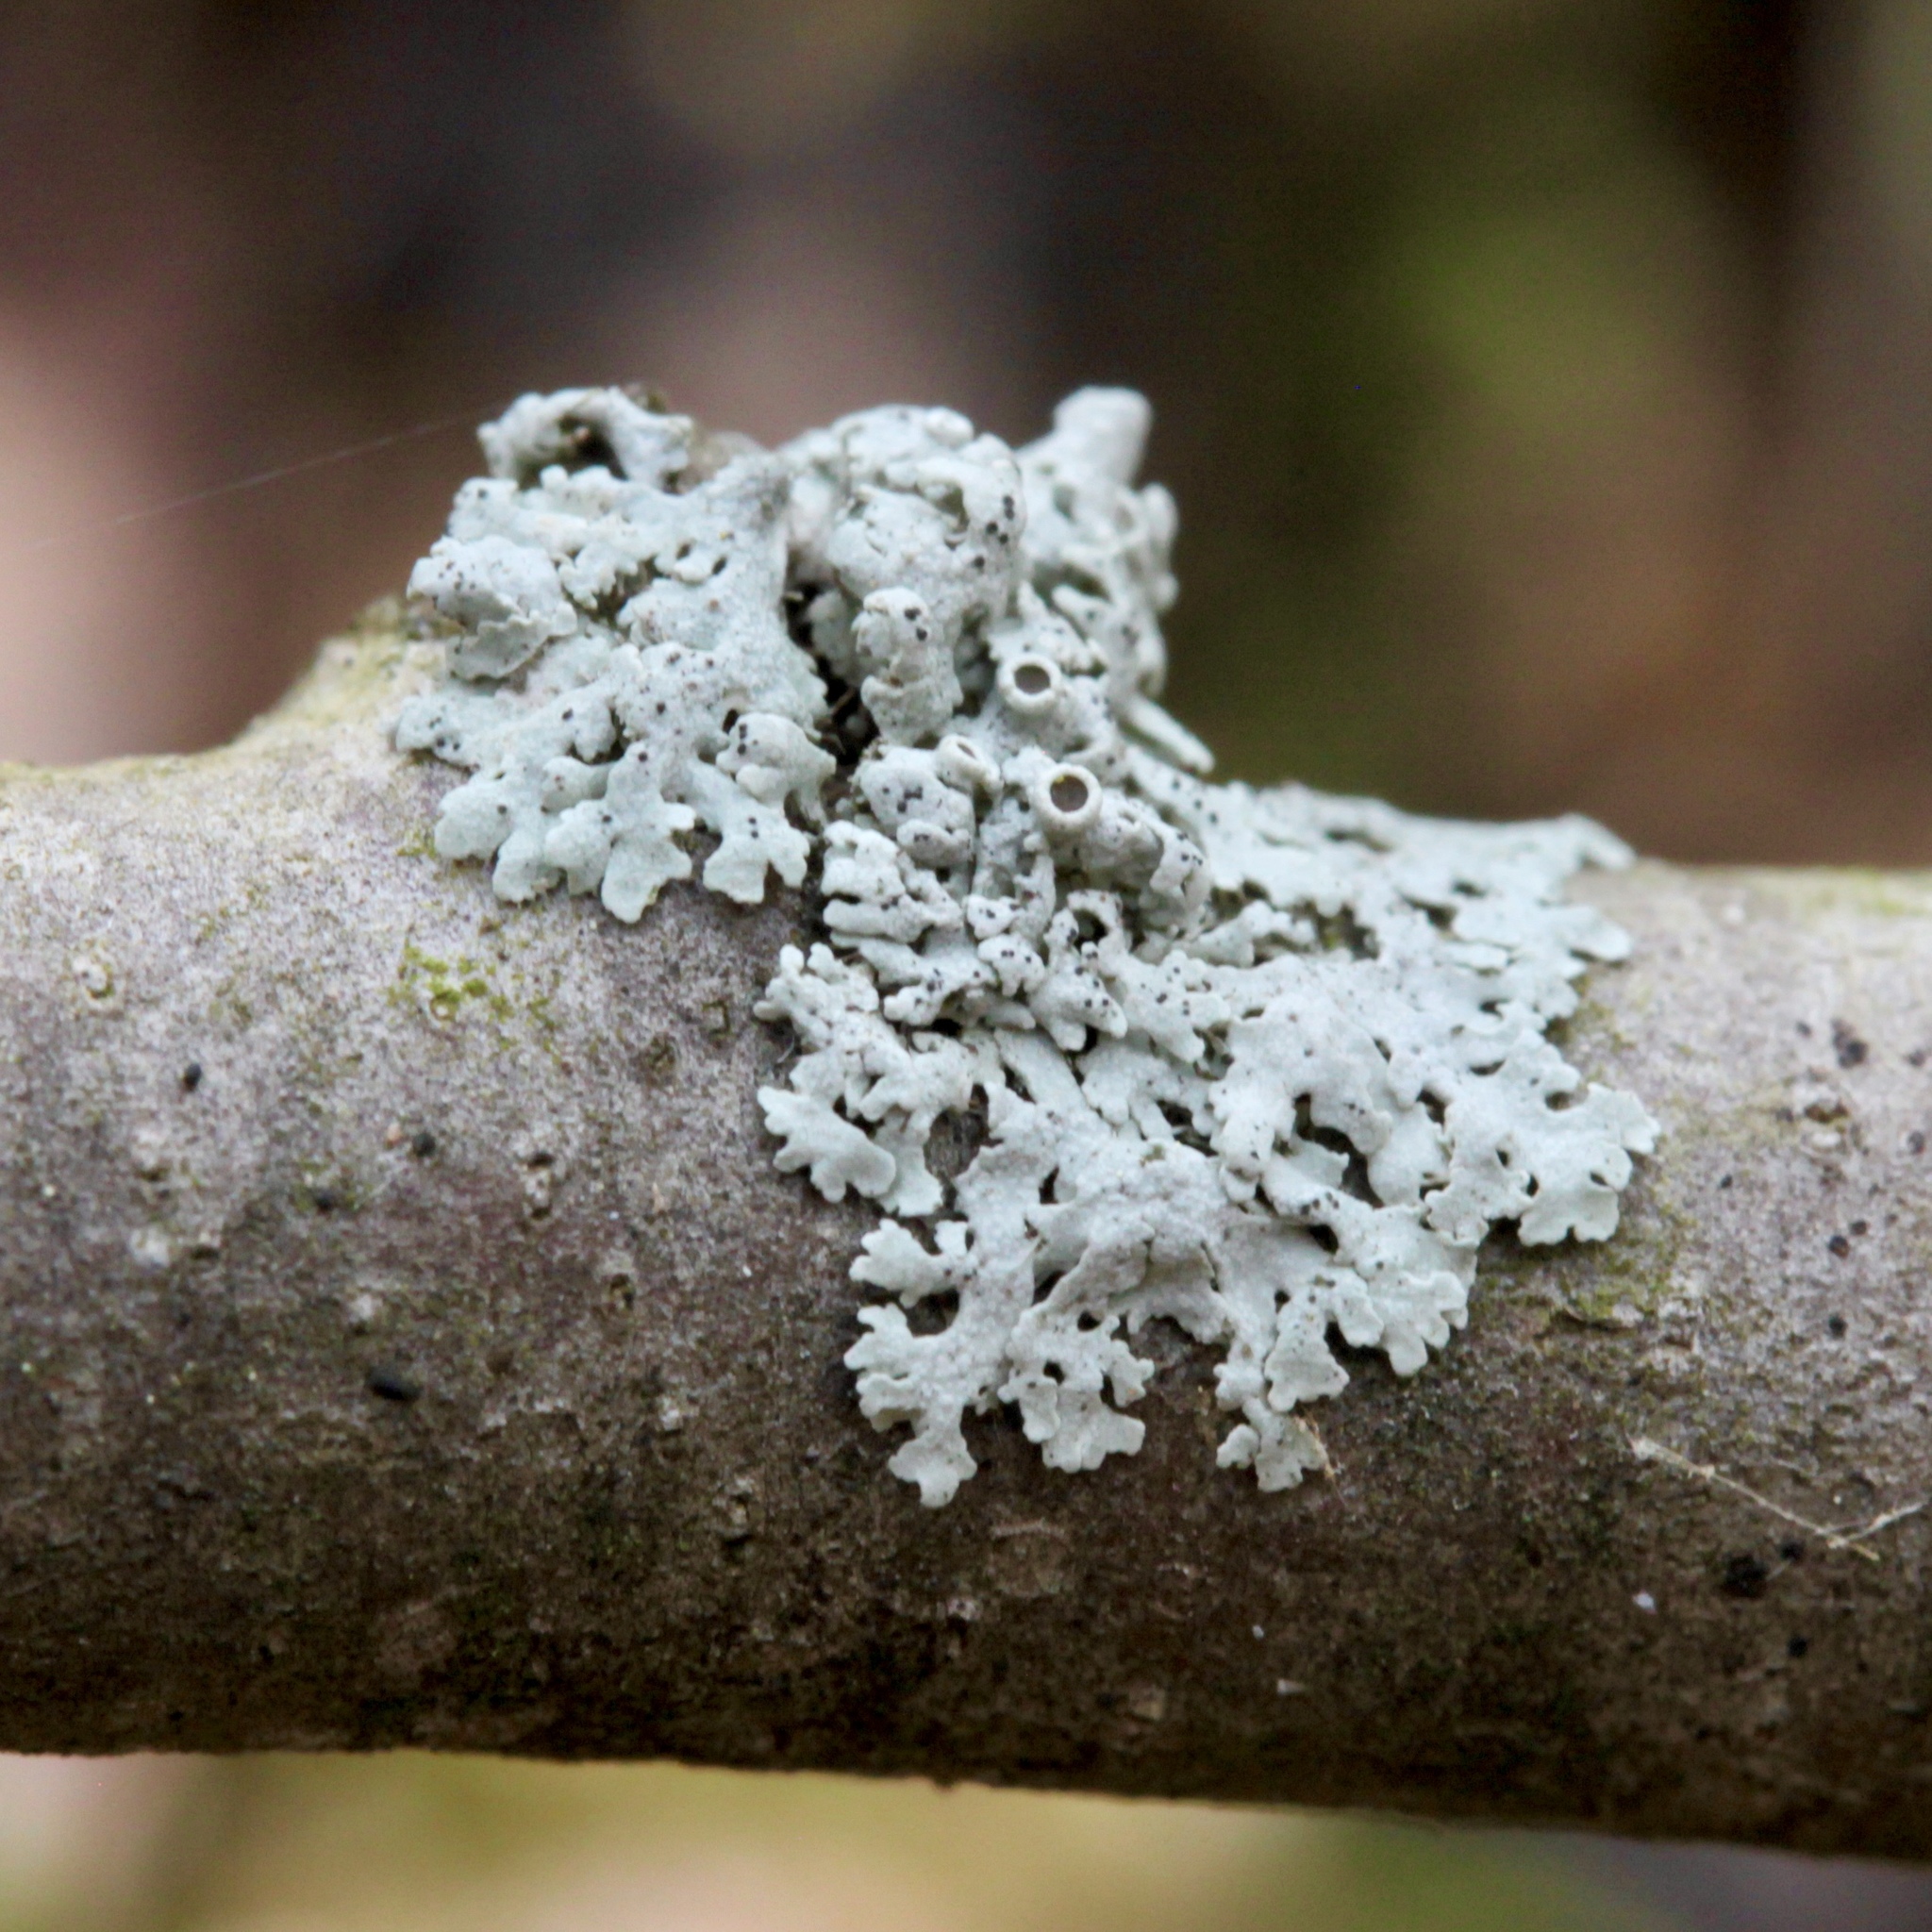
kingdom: Fungi
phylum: Ascomycota
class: Lecanoromycetes
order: Caliciales
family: Physciaceae
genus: Physcia
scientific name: Physcia millegrana
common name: Rosette lichen
